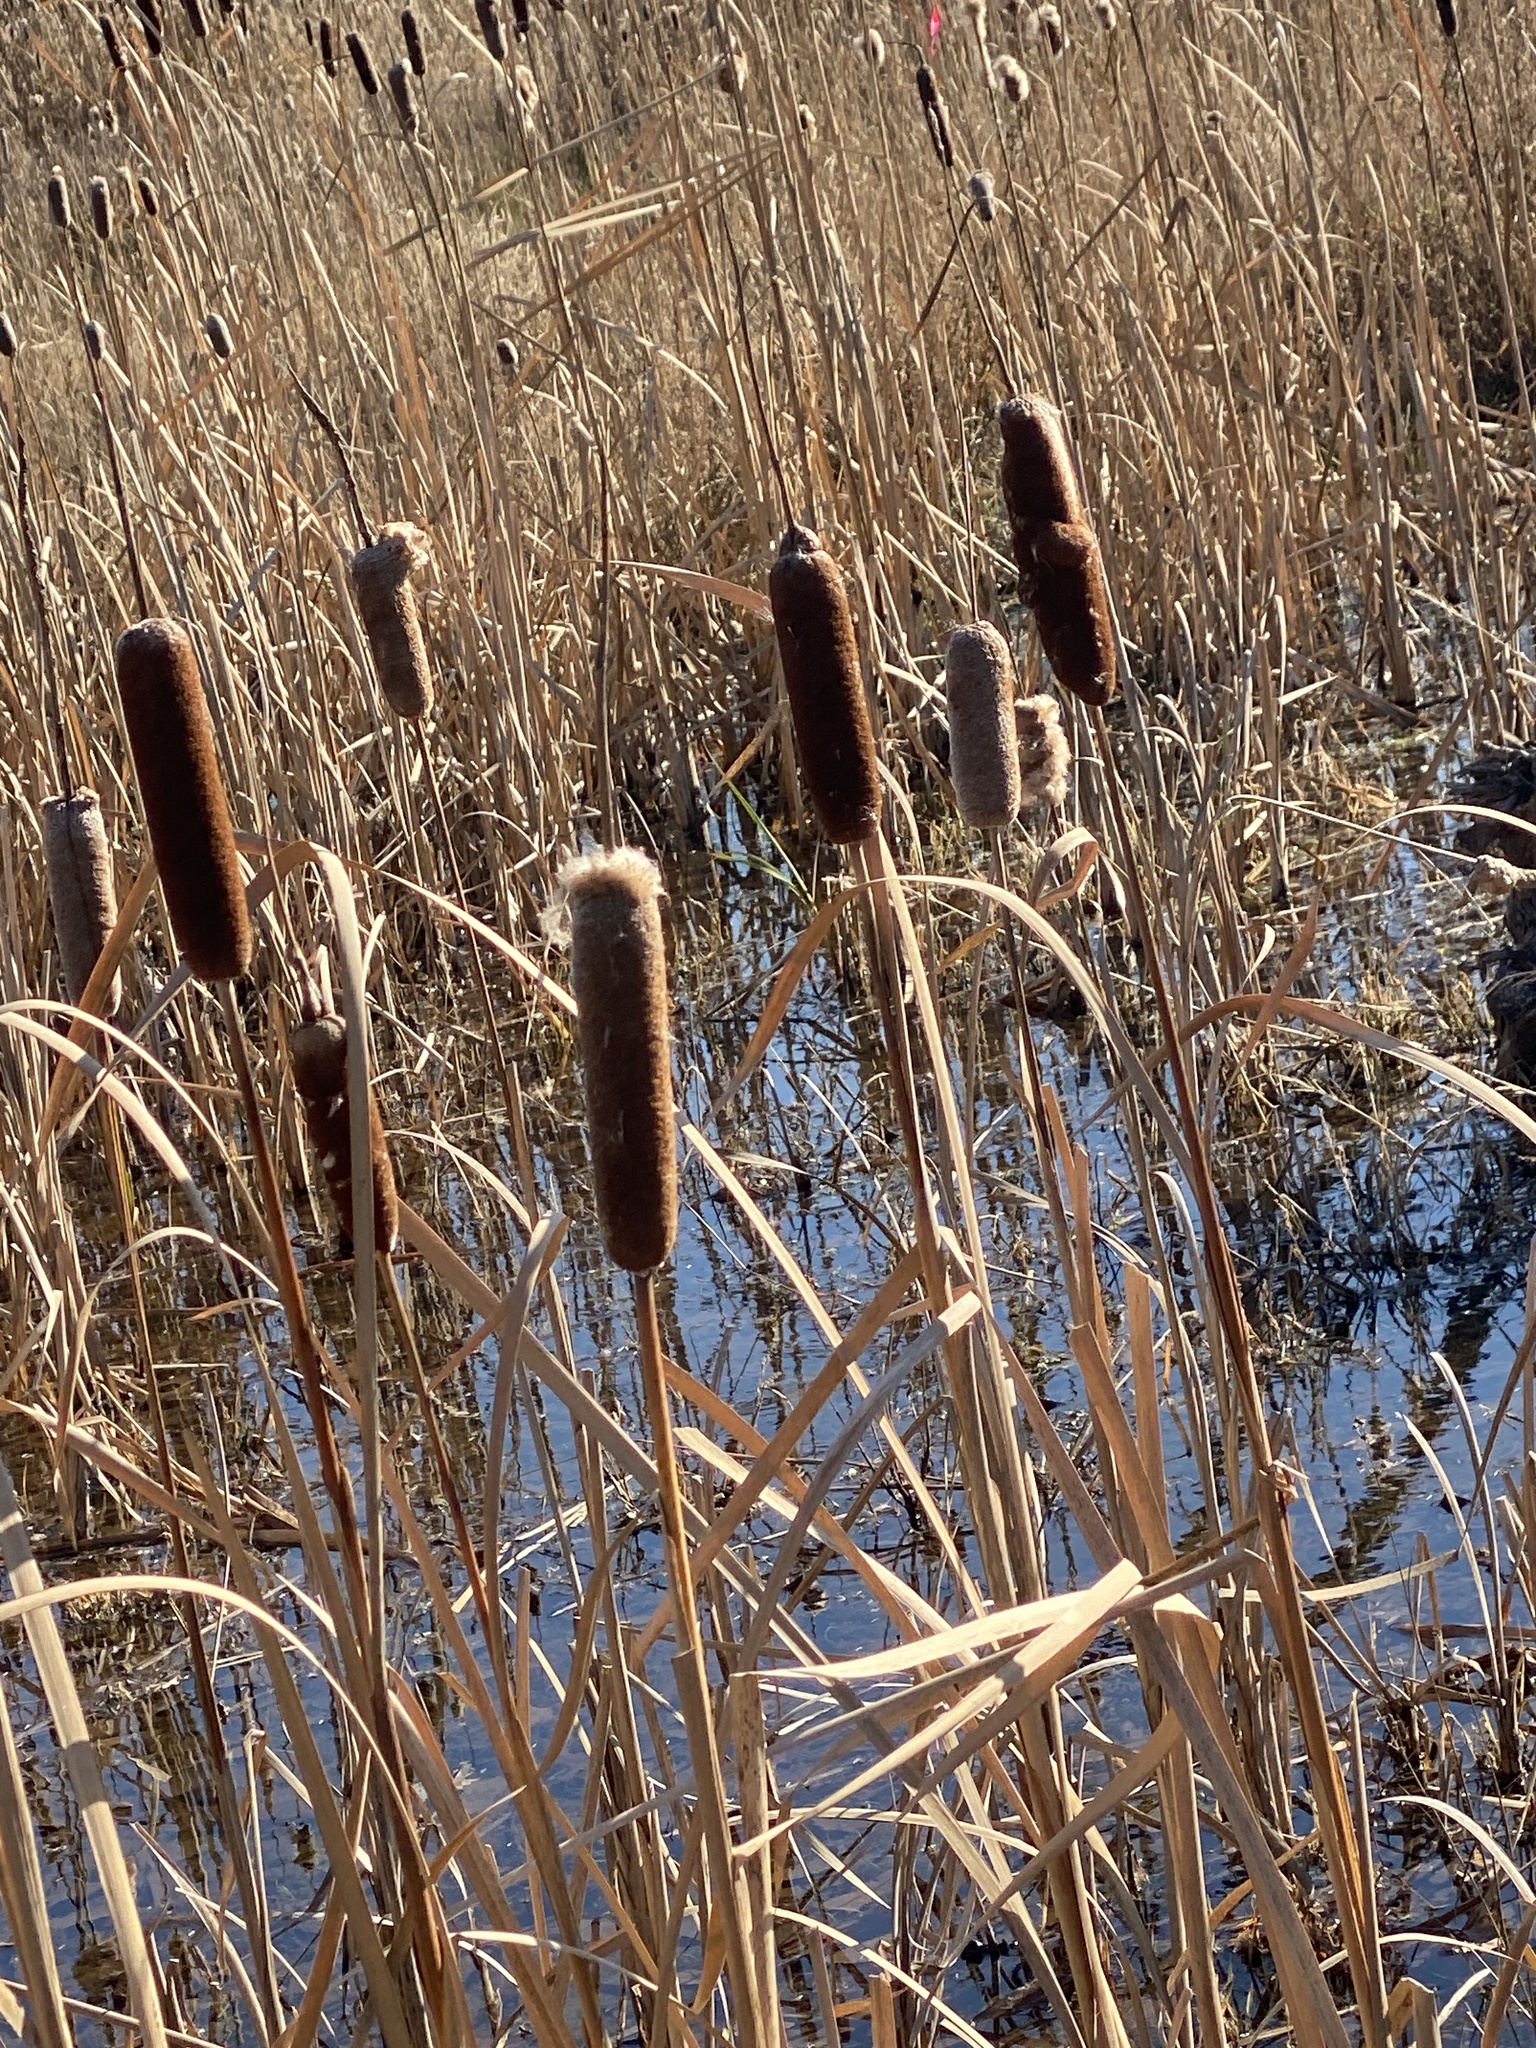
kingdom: Plantae
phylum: Tracheophyta
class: Liliopsida
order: Poales
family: Typhaceae
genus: Typha
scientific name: Typha
